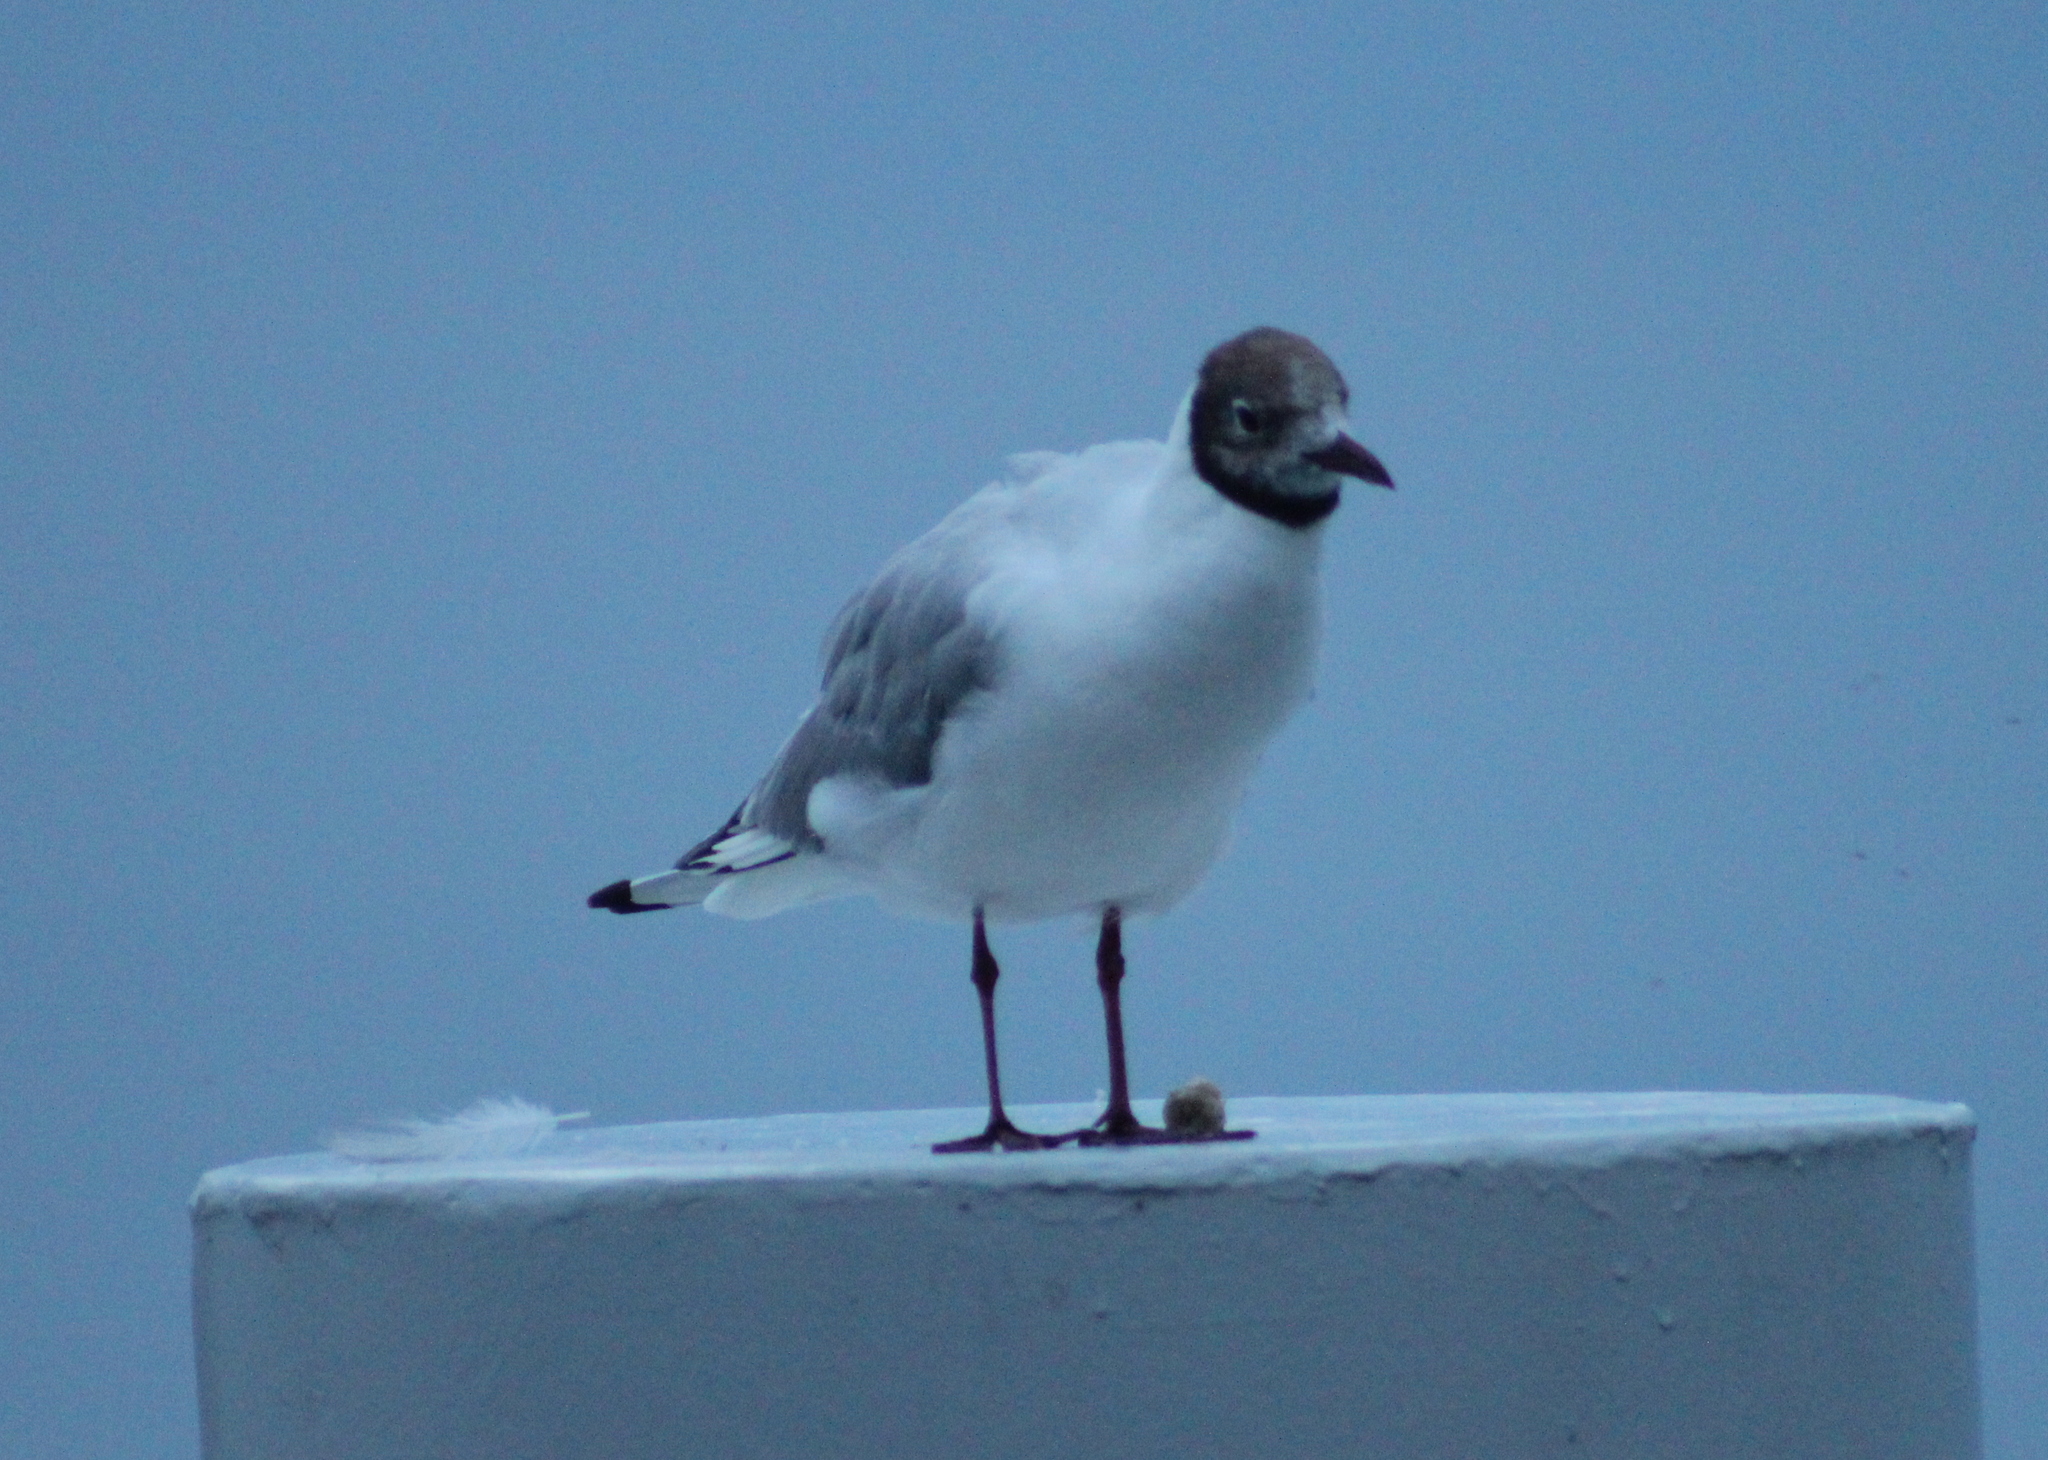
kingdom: Animalia
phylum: Chordata
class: Aves
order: Charadriiformes
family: Laridae
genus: Chroicocephalus
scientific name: Chroicocephalus ridibundus
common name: Black-headed gull
